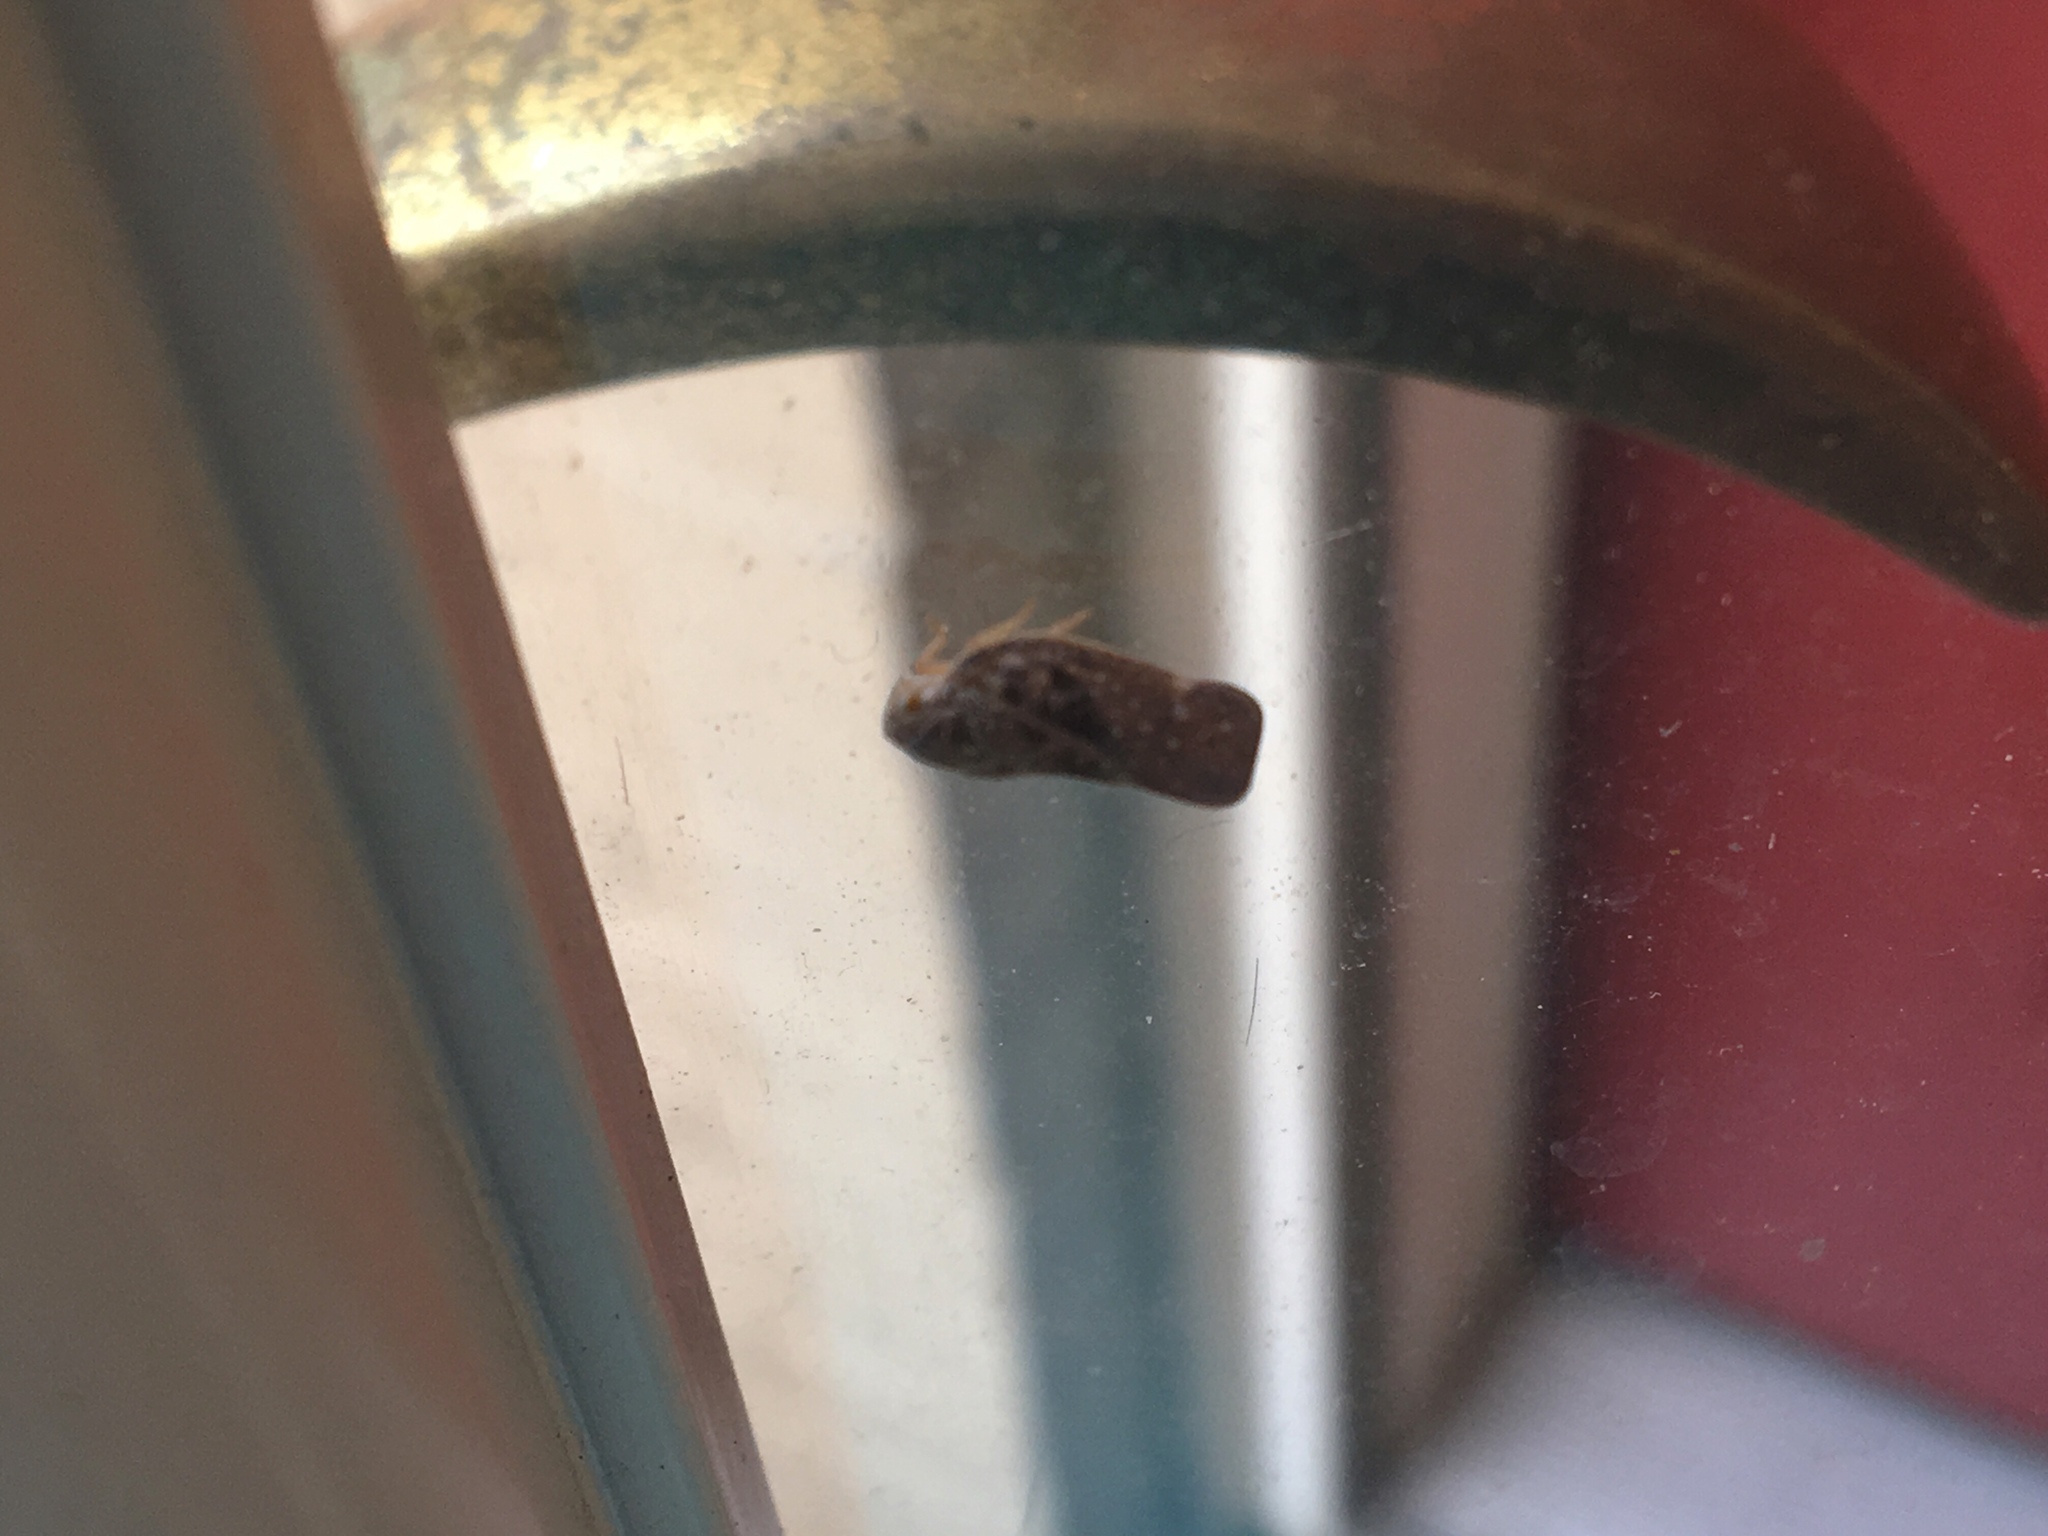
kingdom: Animalia
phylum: Arthropoda
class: Insecta
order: Hemiptera
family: Flatidae
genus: Metcalfa
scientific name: Metcalfa pruinosa
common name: Citrus flatid planthopper
